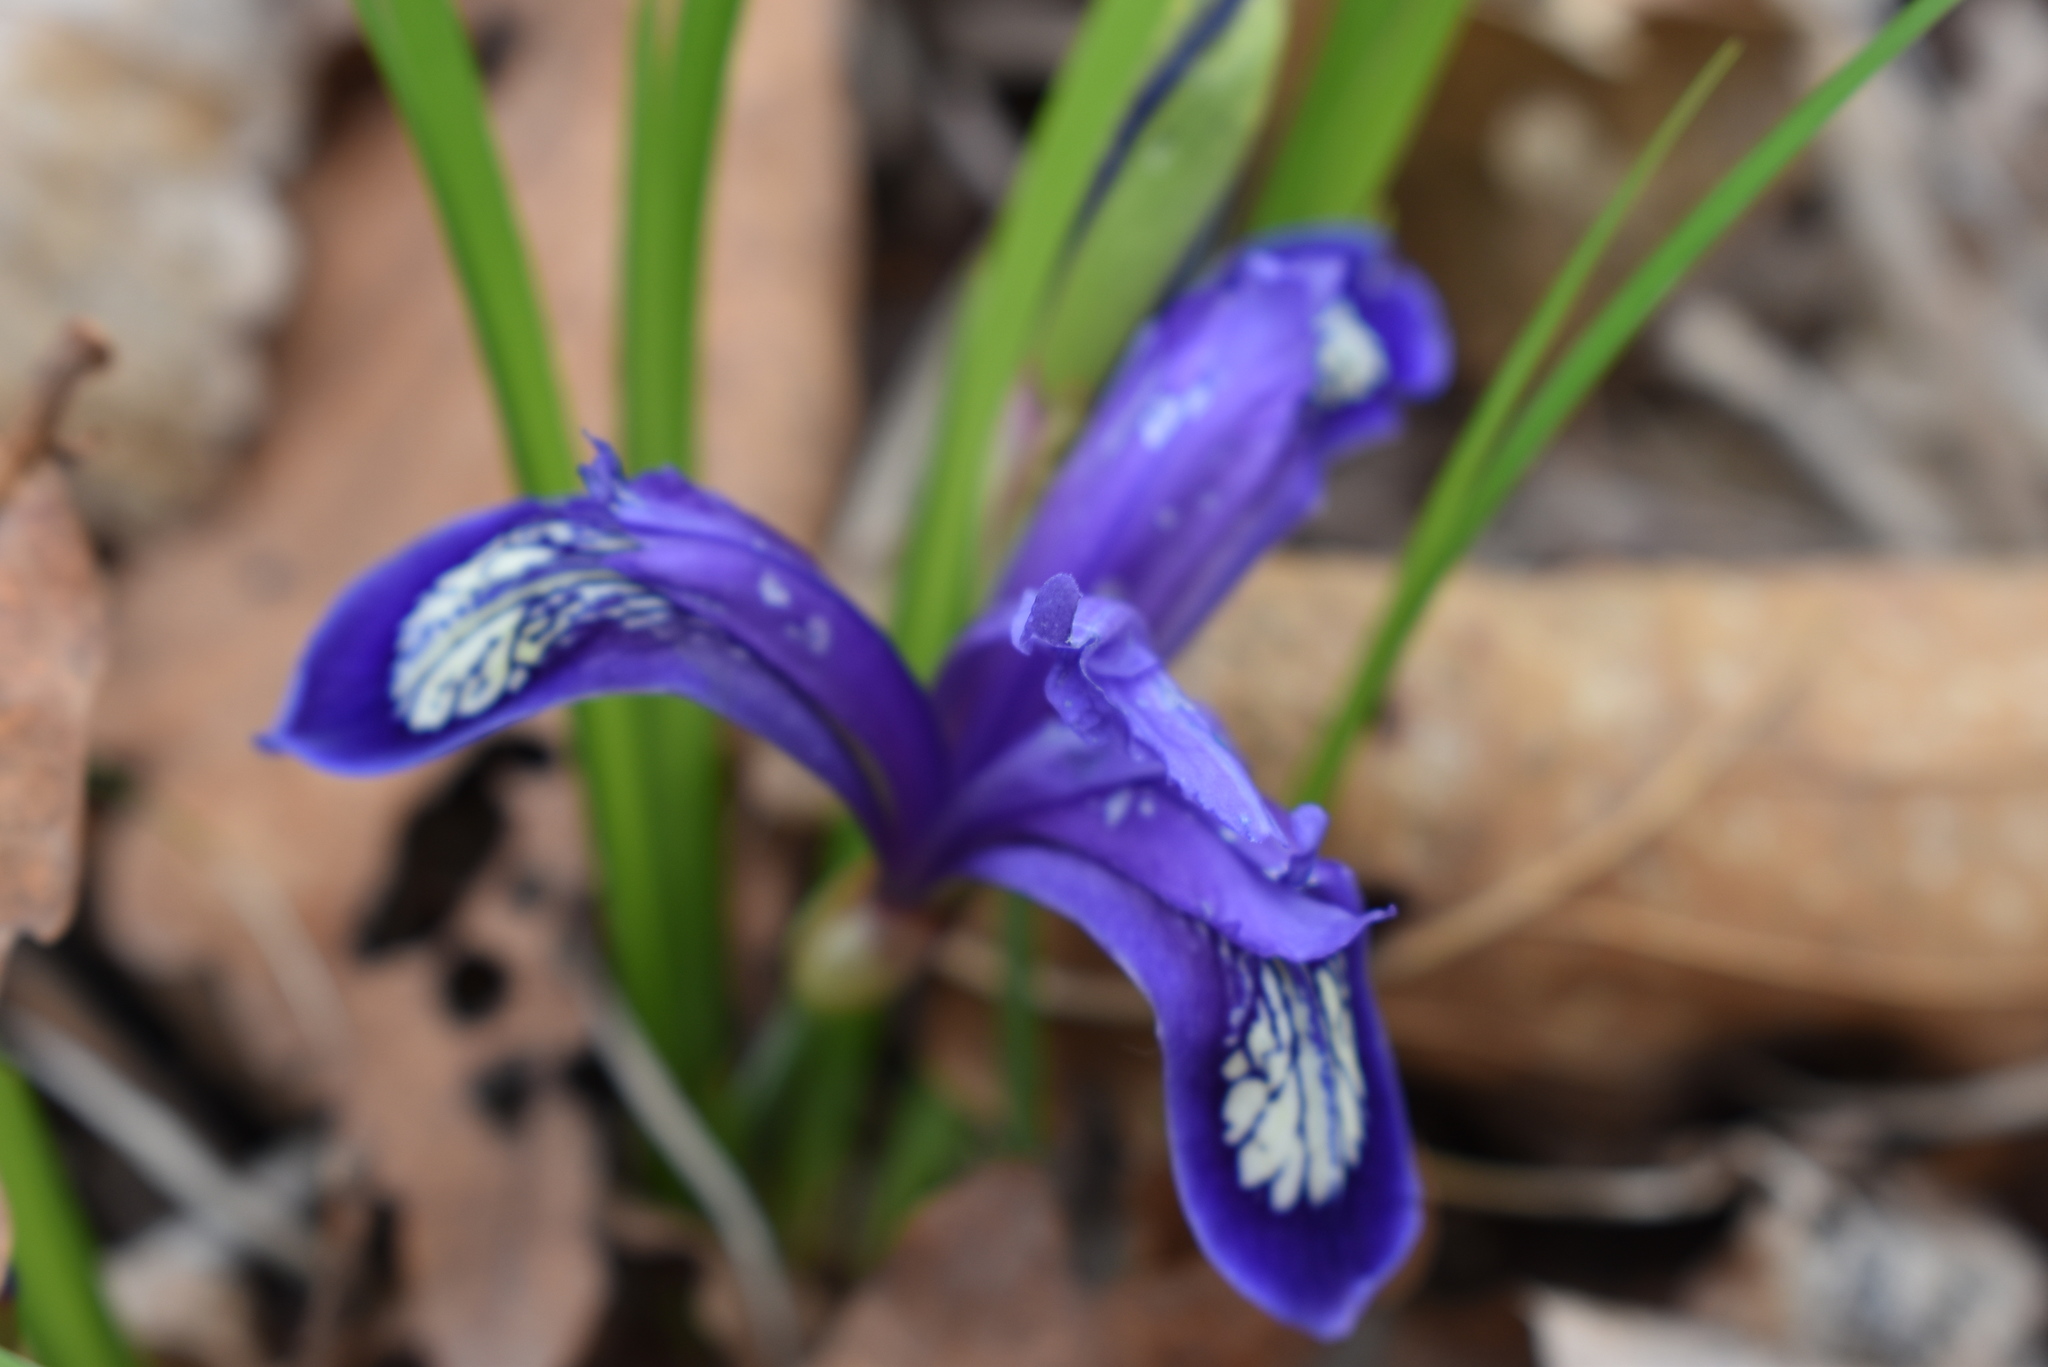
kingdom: Plantae
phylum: Tracheophyta
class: Liliopsida
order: Asparagales
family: Iridaceae
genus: Iris
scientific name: Iris uniflora
